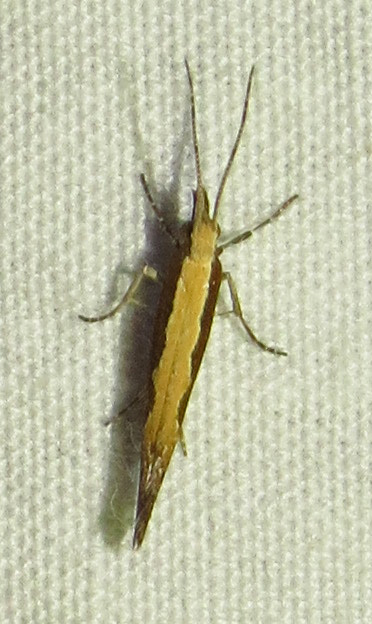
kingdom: Animalia
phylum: Arthropoda
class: Insecta
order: Lepidoptera
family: Plutellidae
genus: Plutella
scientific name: Plutella xylostella
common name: Diamond-back moth
